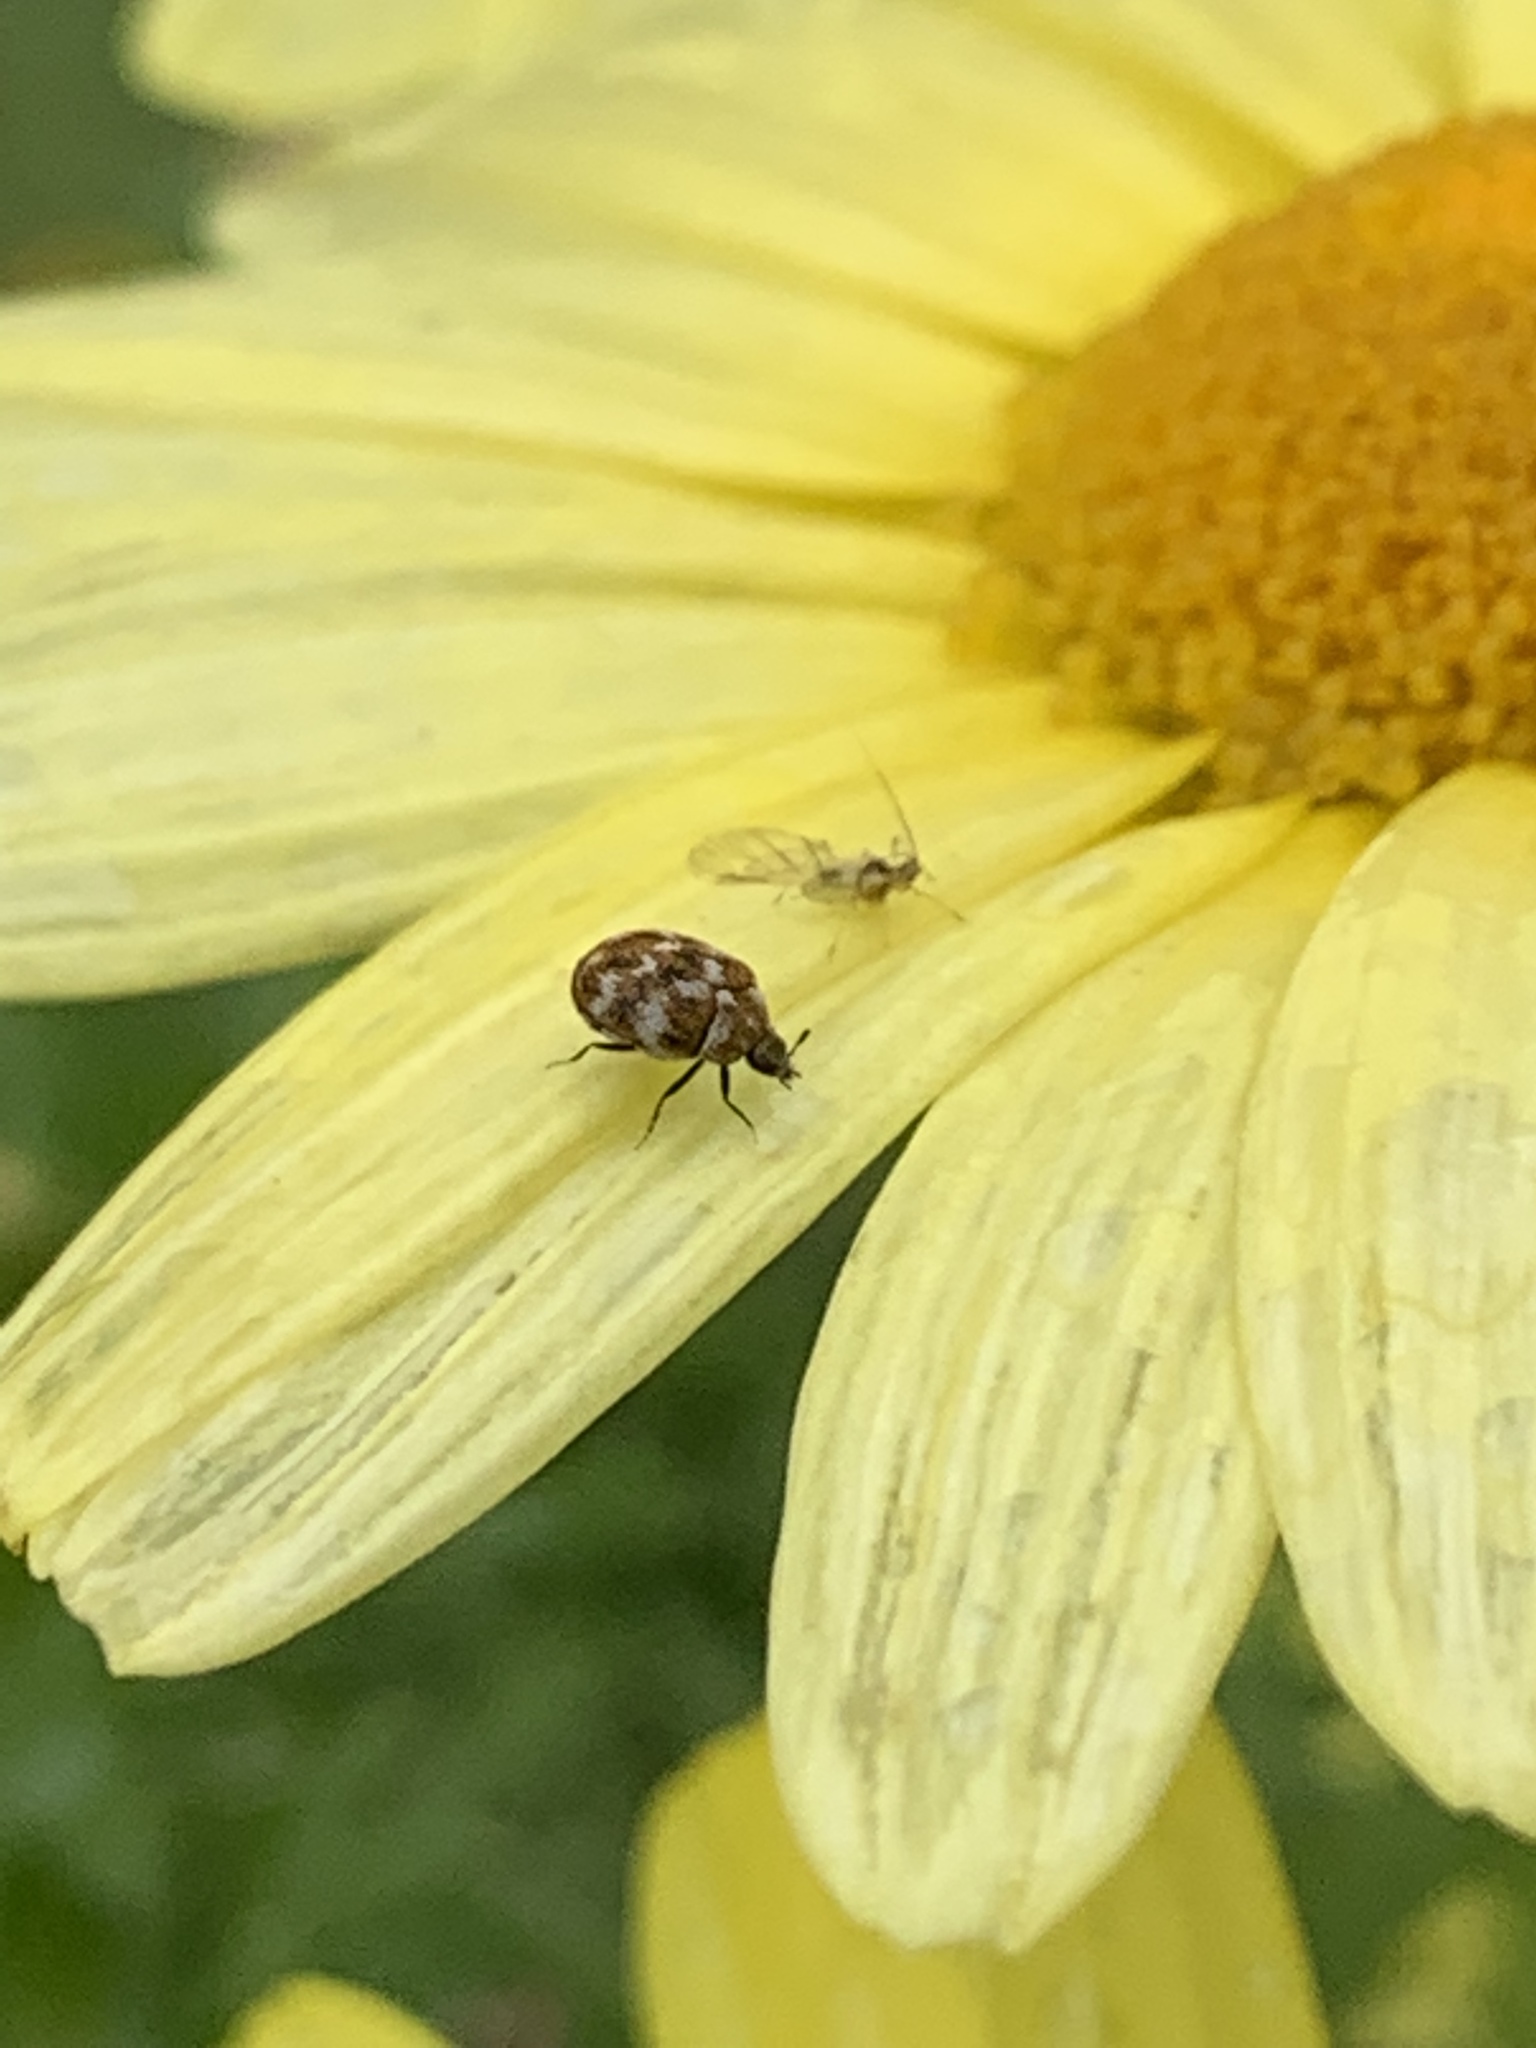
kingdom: Animalia
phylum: Arthropoda
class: Insecta
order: Coleoptera
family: Dermestidae
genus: Anthrenus
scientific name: Anthrenus verbasci
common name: Varied carpet beetle
